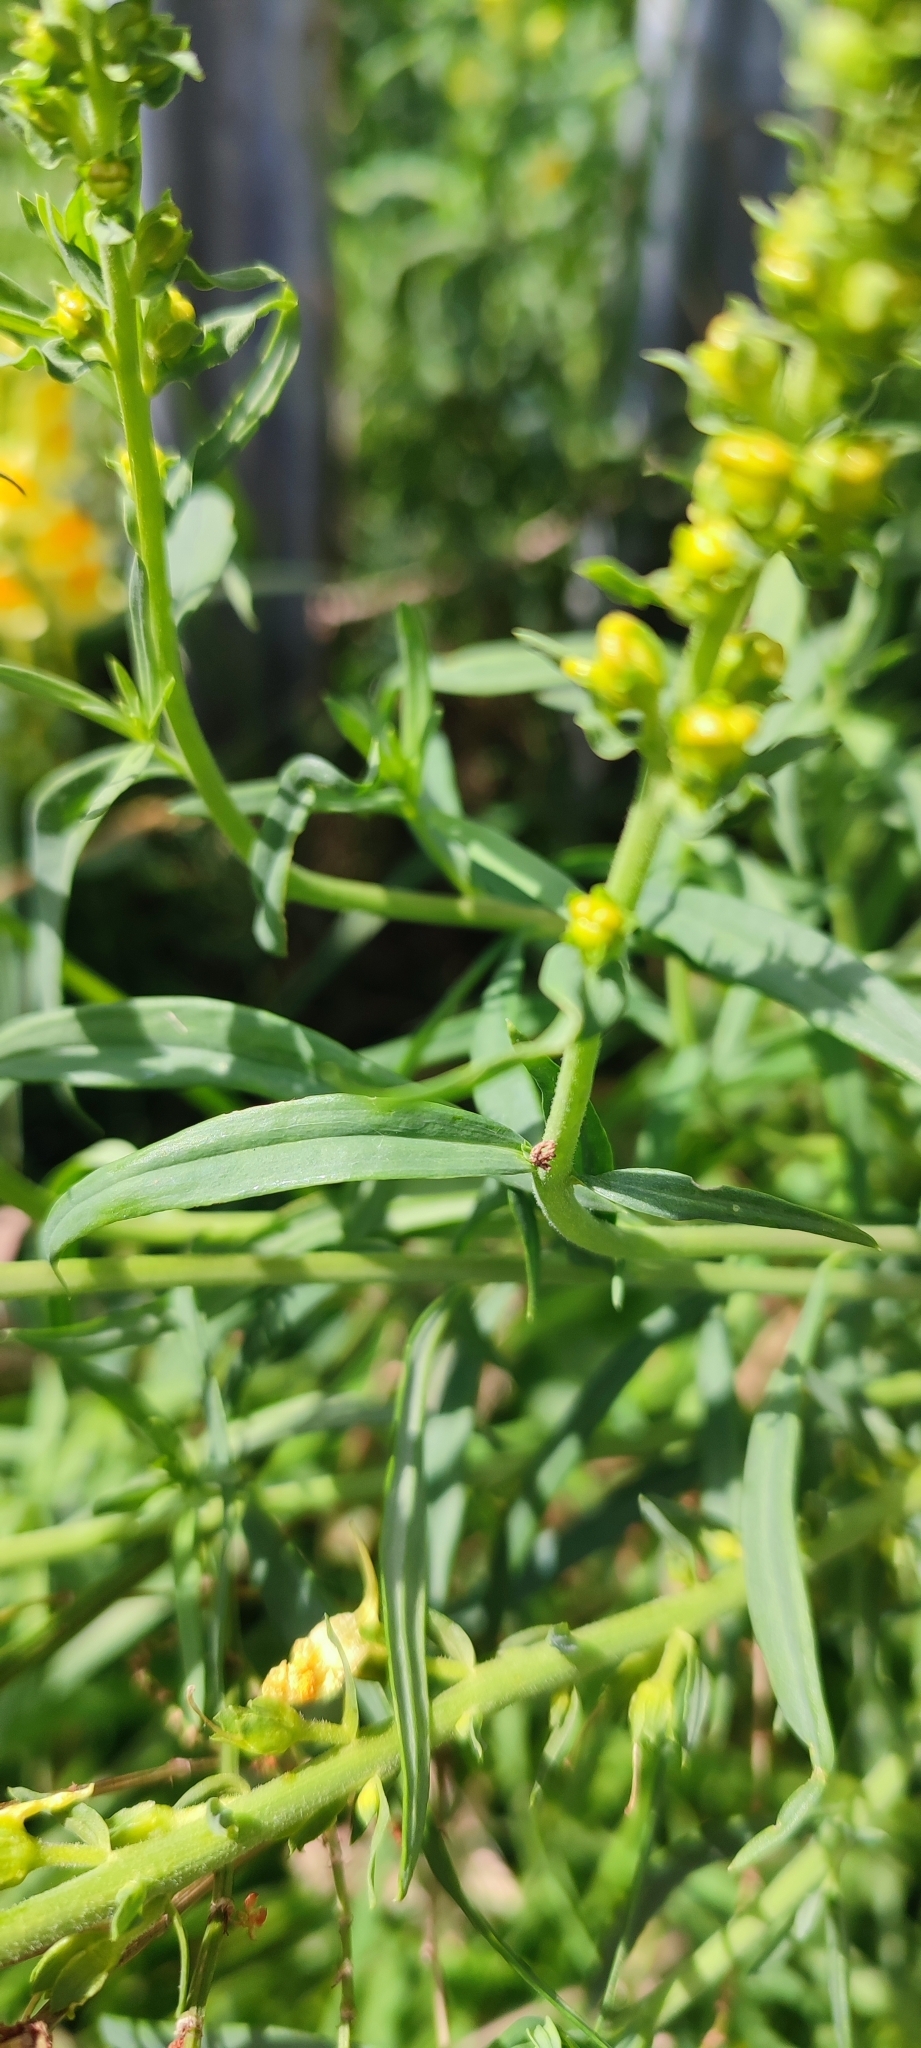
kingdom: Plantae
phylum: Tracheophyta
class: Magnoliopsida
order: Lamiales
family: Plantaginaceae
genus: Linaria
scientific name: Linaria vulgaris
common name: Butter and eggs
